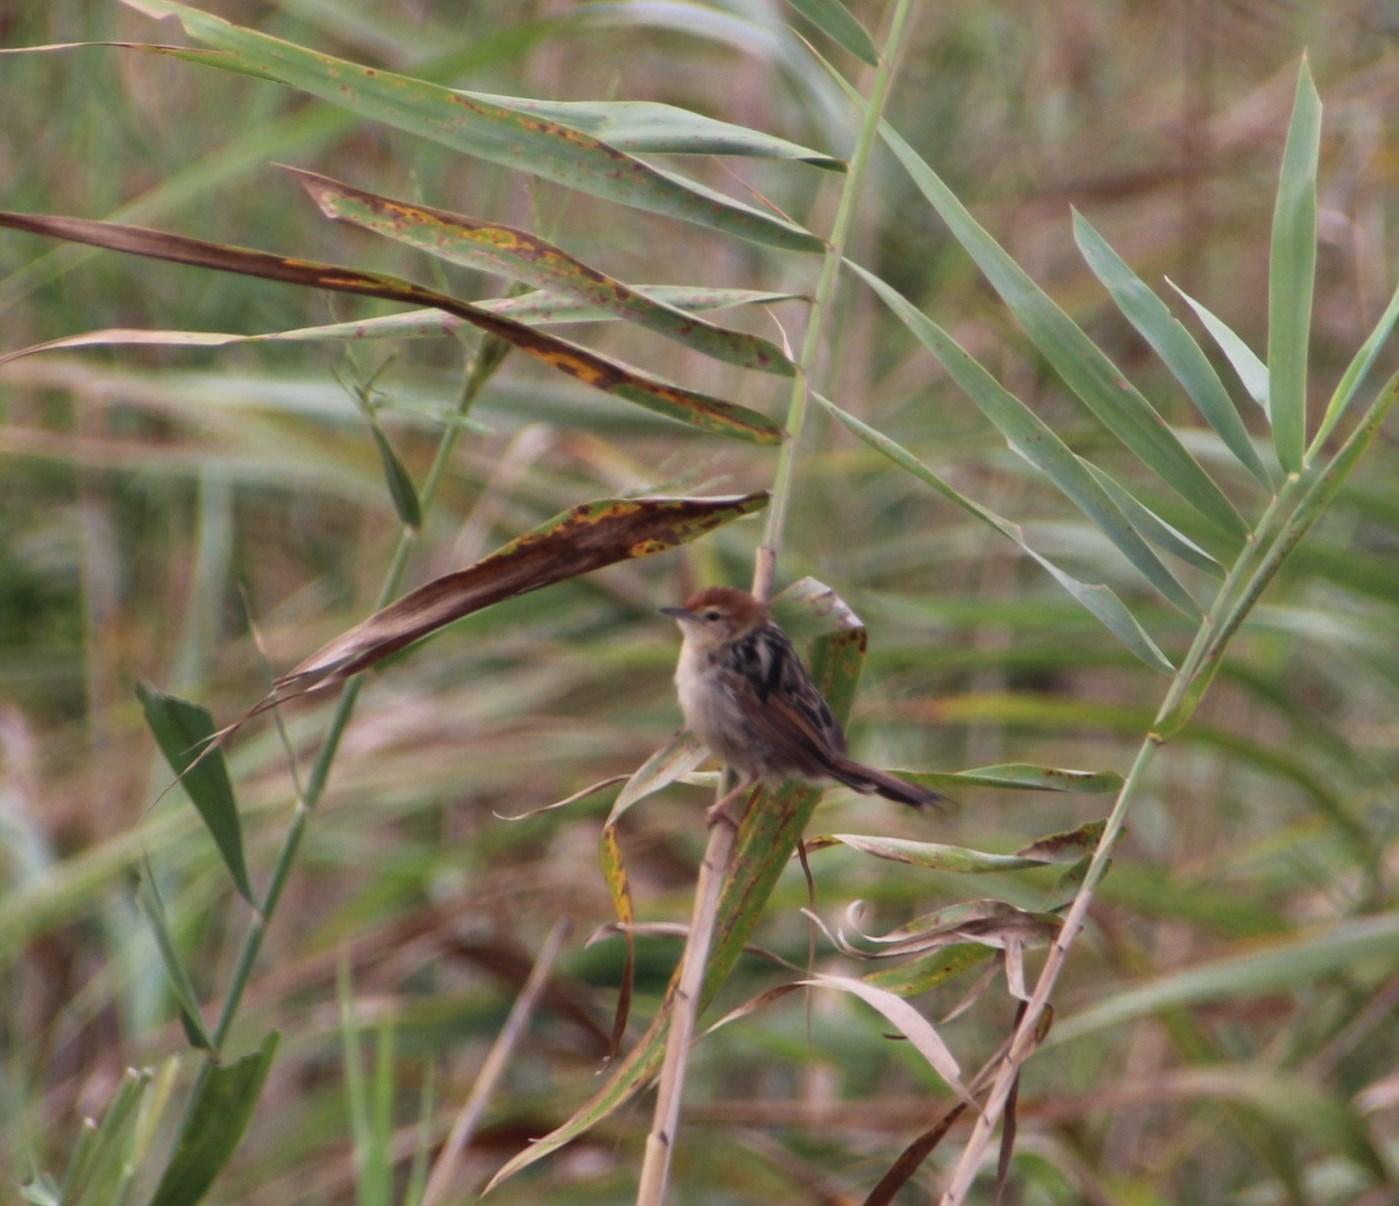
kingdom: Animalia
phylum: Chordata
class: Aves
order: Passeriformes
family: Cisticolidae
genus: Cisticola
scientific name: Cisticola tinniens
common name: Levaillant's cisticola
